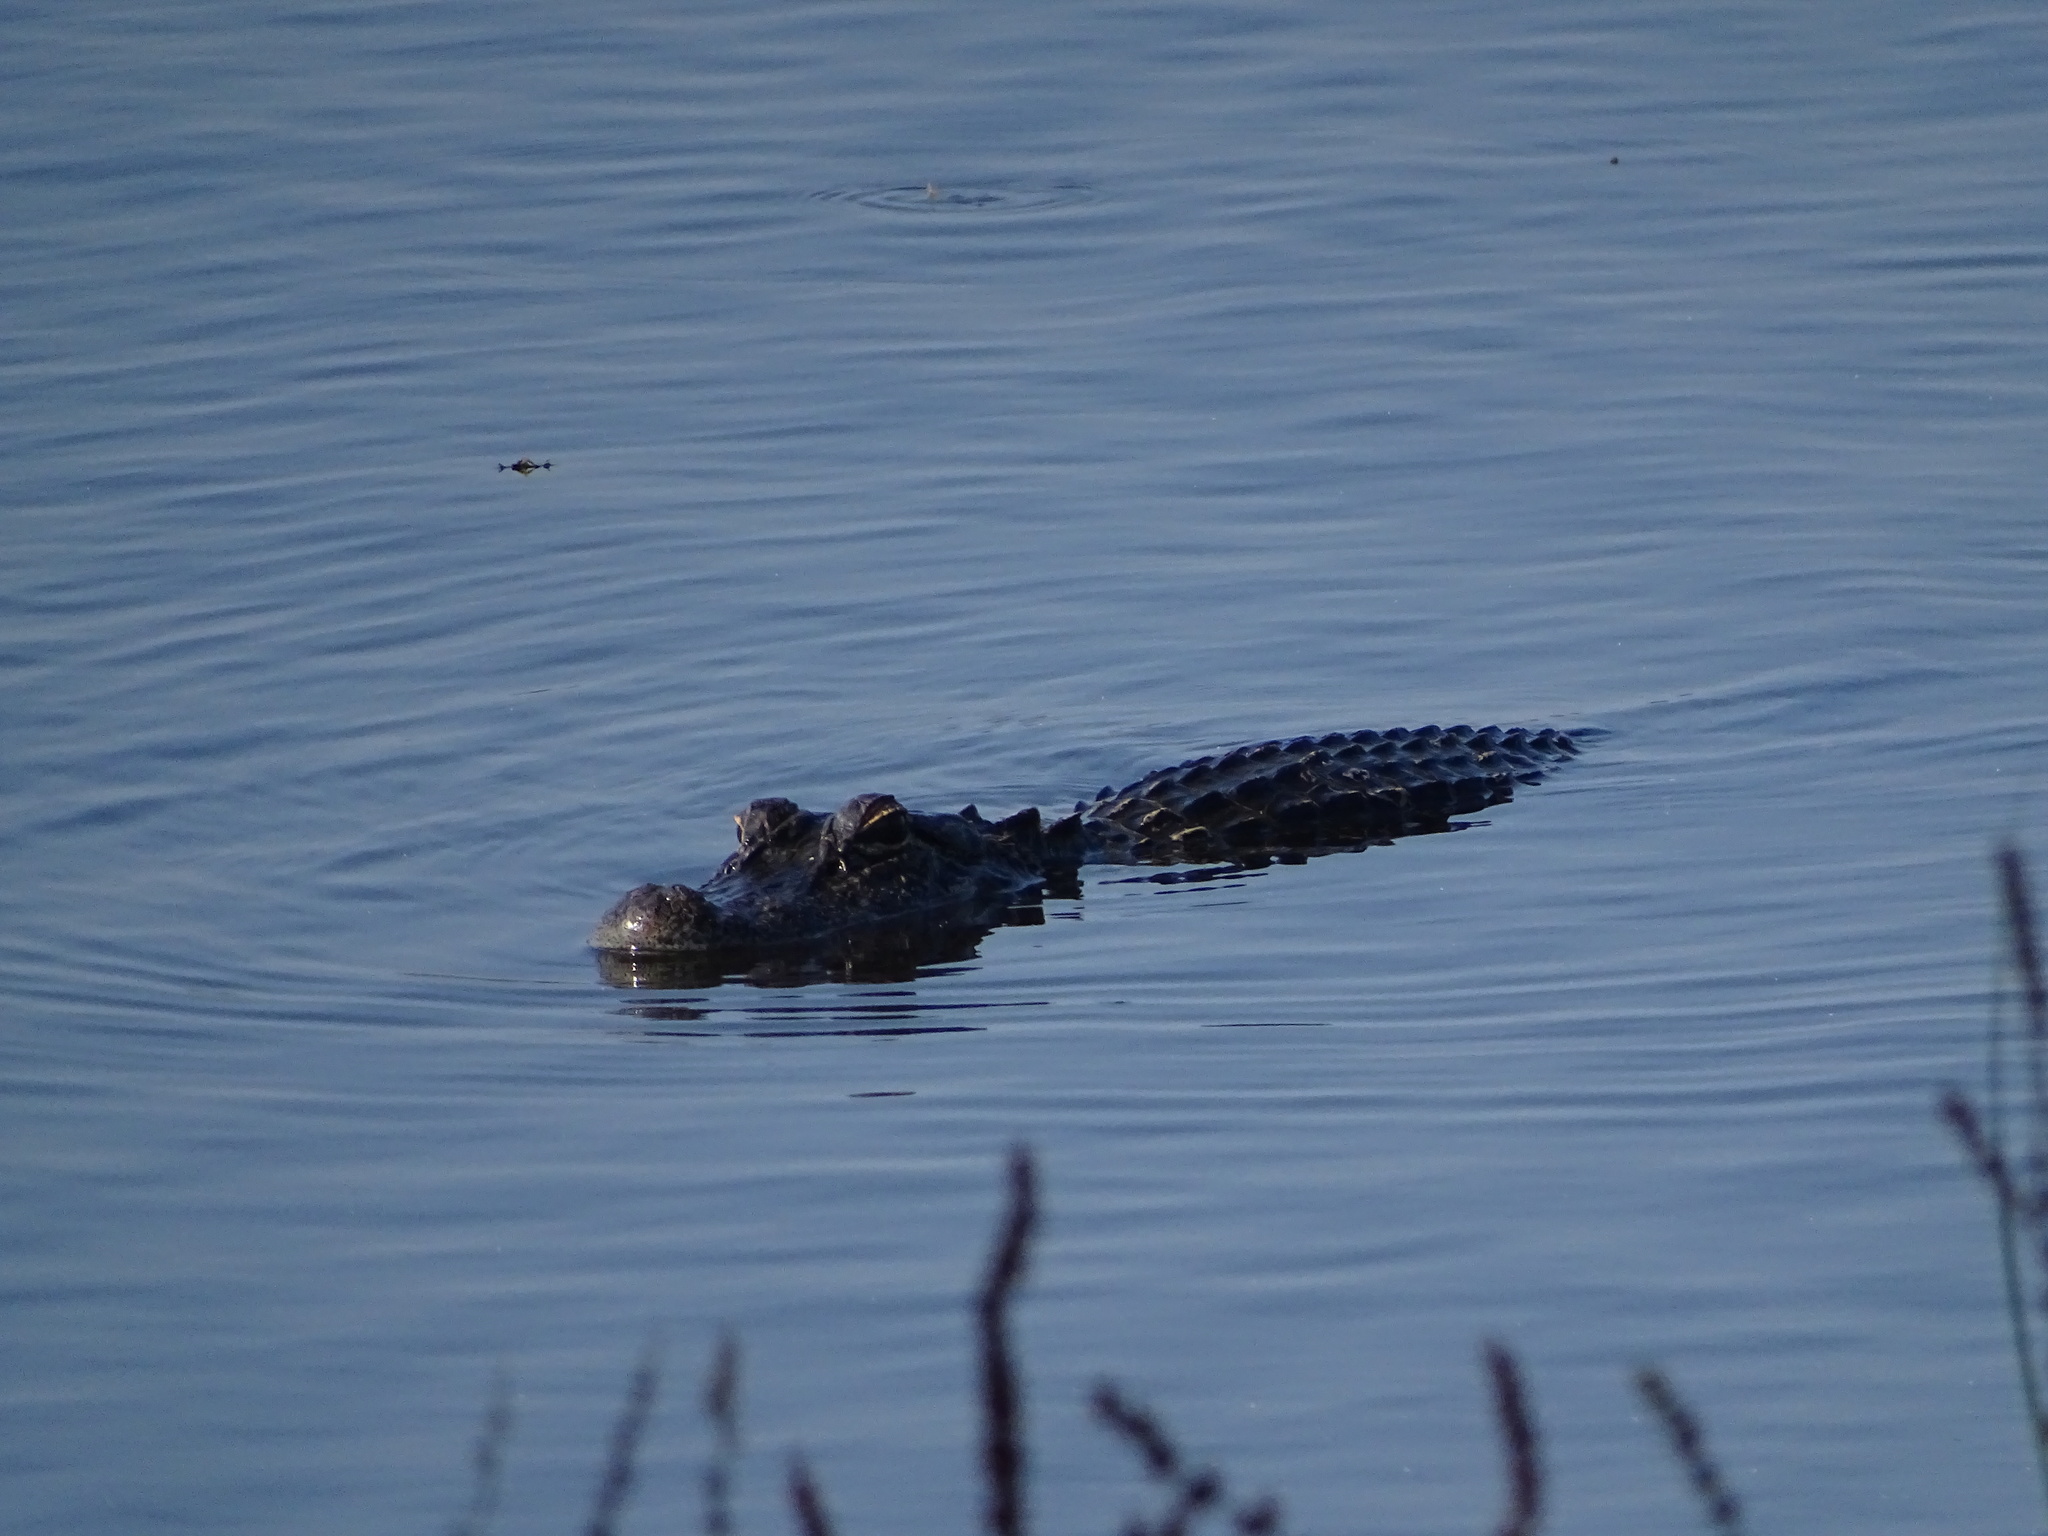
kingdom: Animalia
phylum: Chordata
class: Crocodylia
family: Alligatoridae
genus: Alligator
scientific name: Alligator mississippiensis
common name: American alligator
